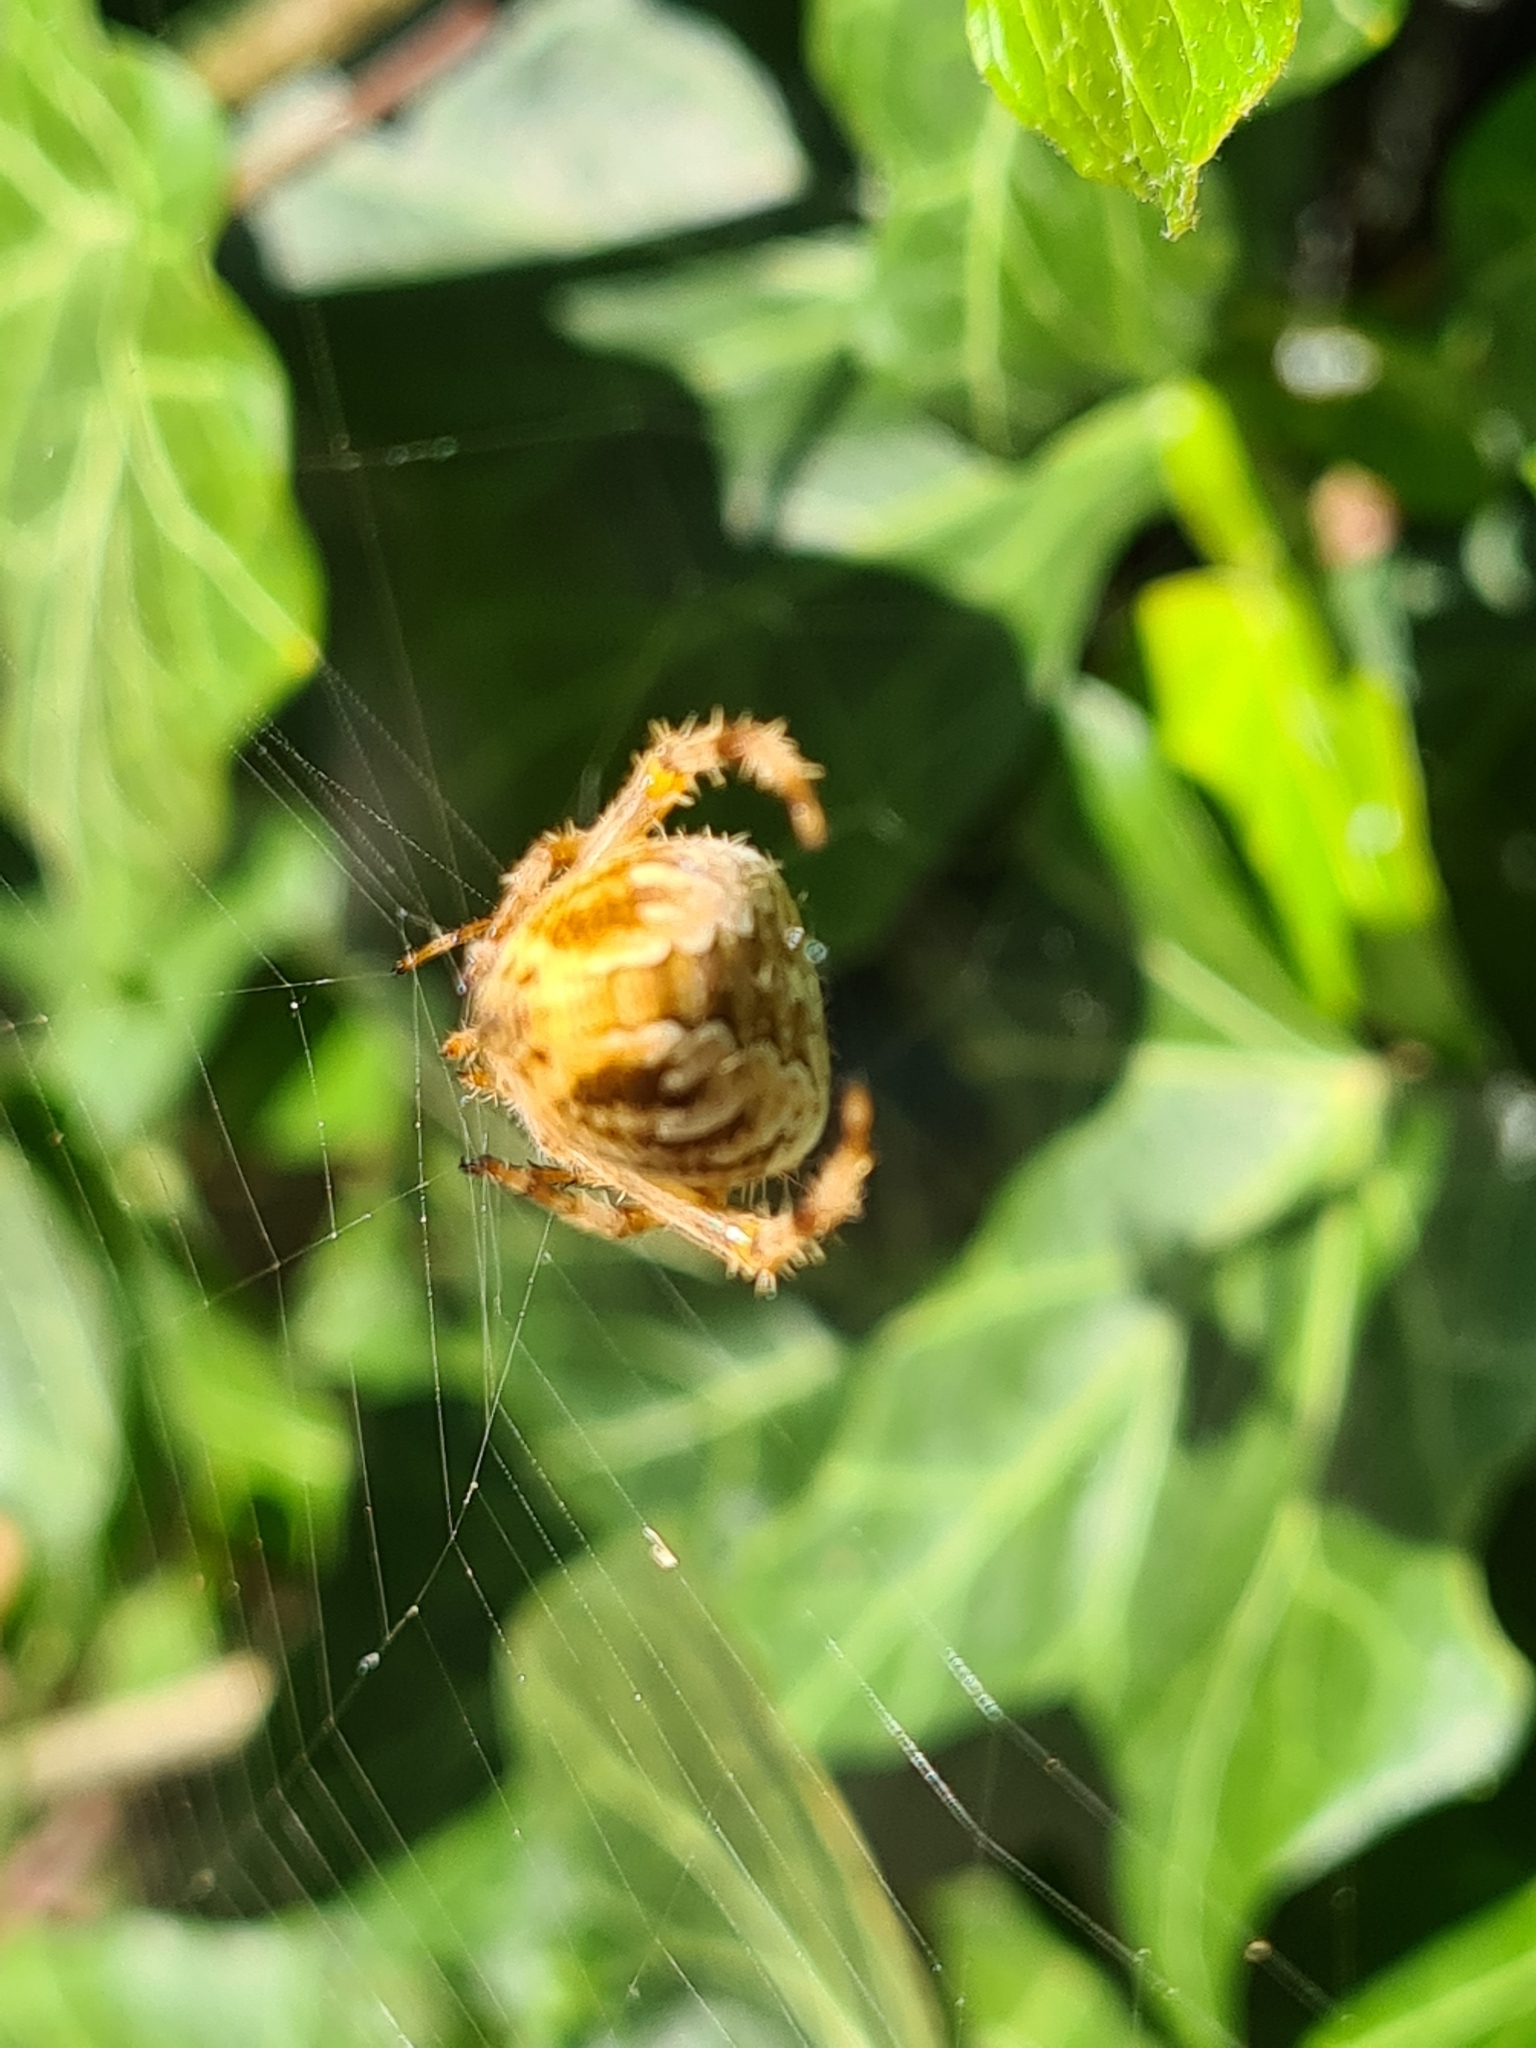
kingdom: Animalia
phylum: Arthropoda
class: Arachnida
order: Araneae
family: Araneidae
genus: Araneus
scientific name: Araneus diadematus
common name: Cross orbweaver
